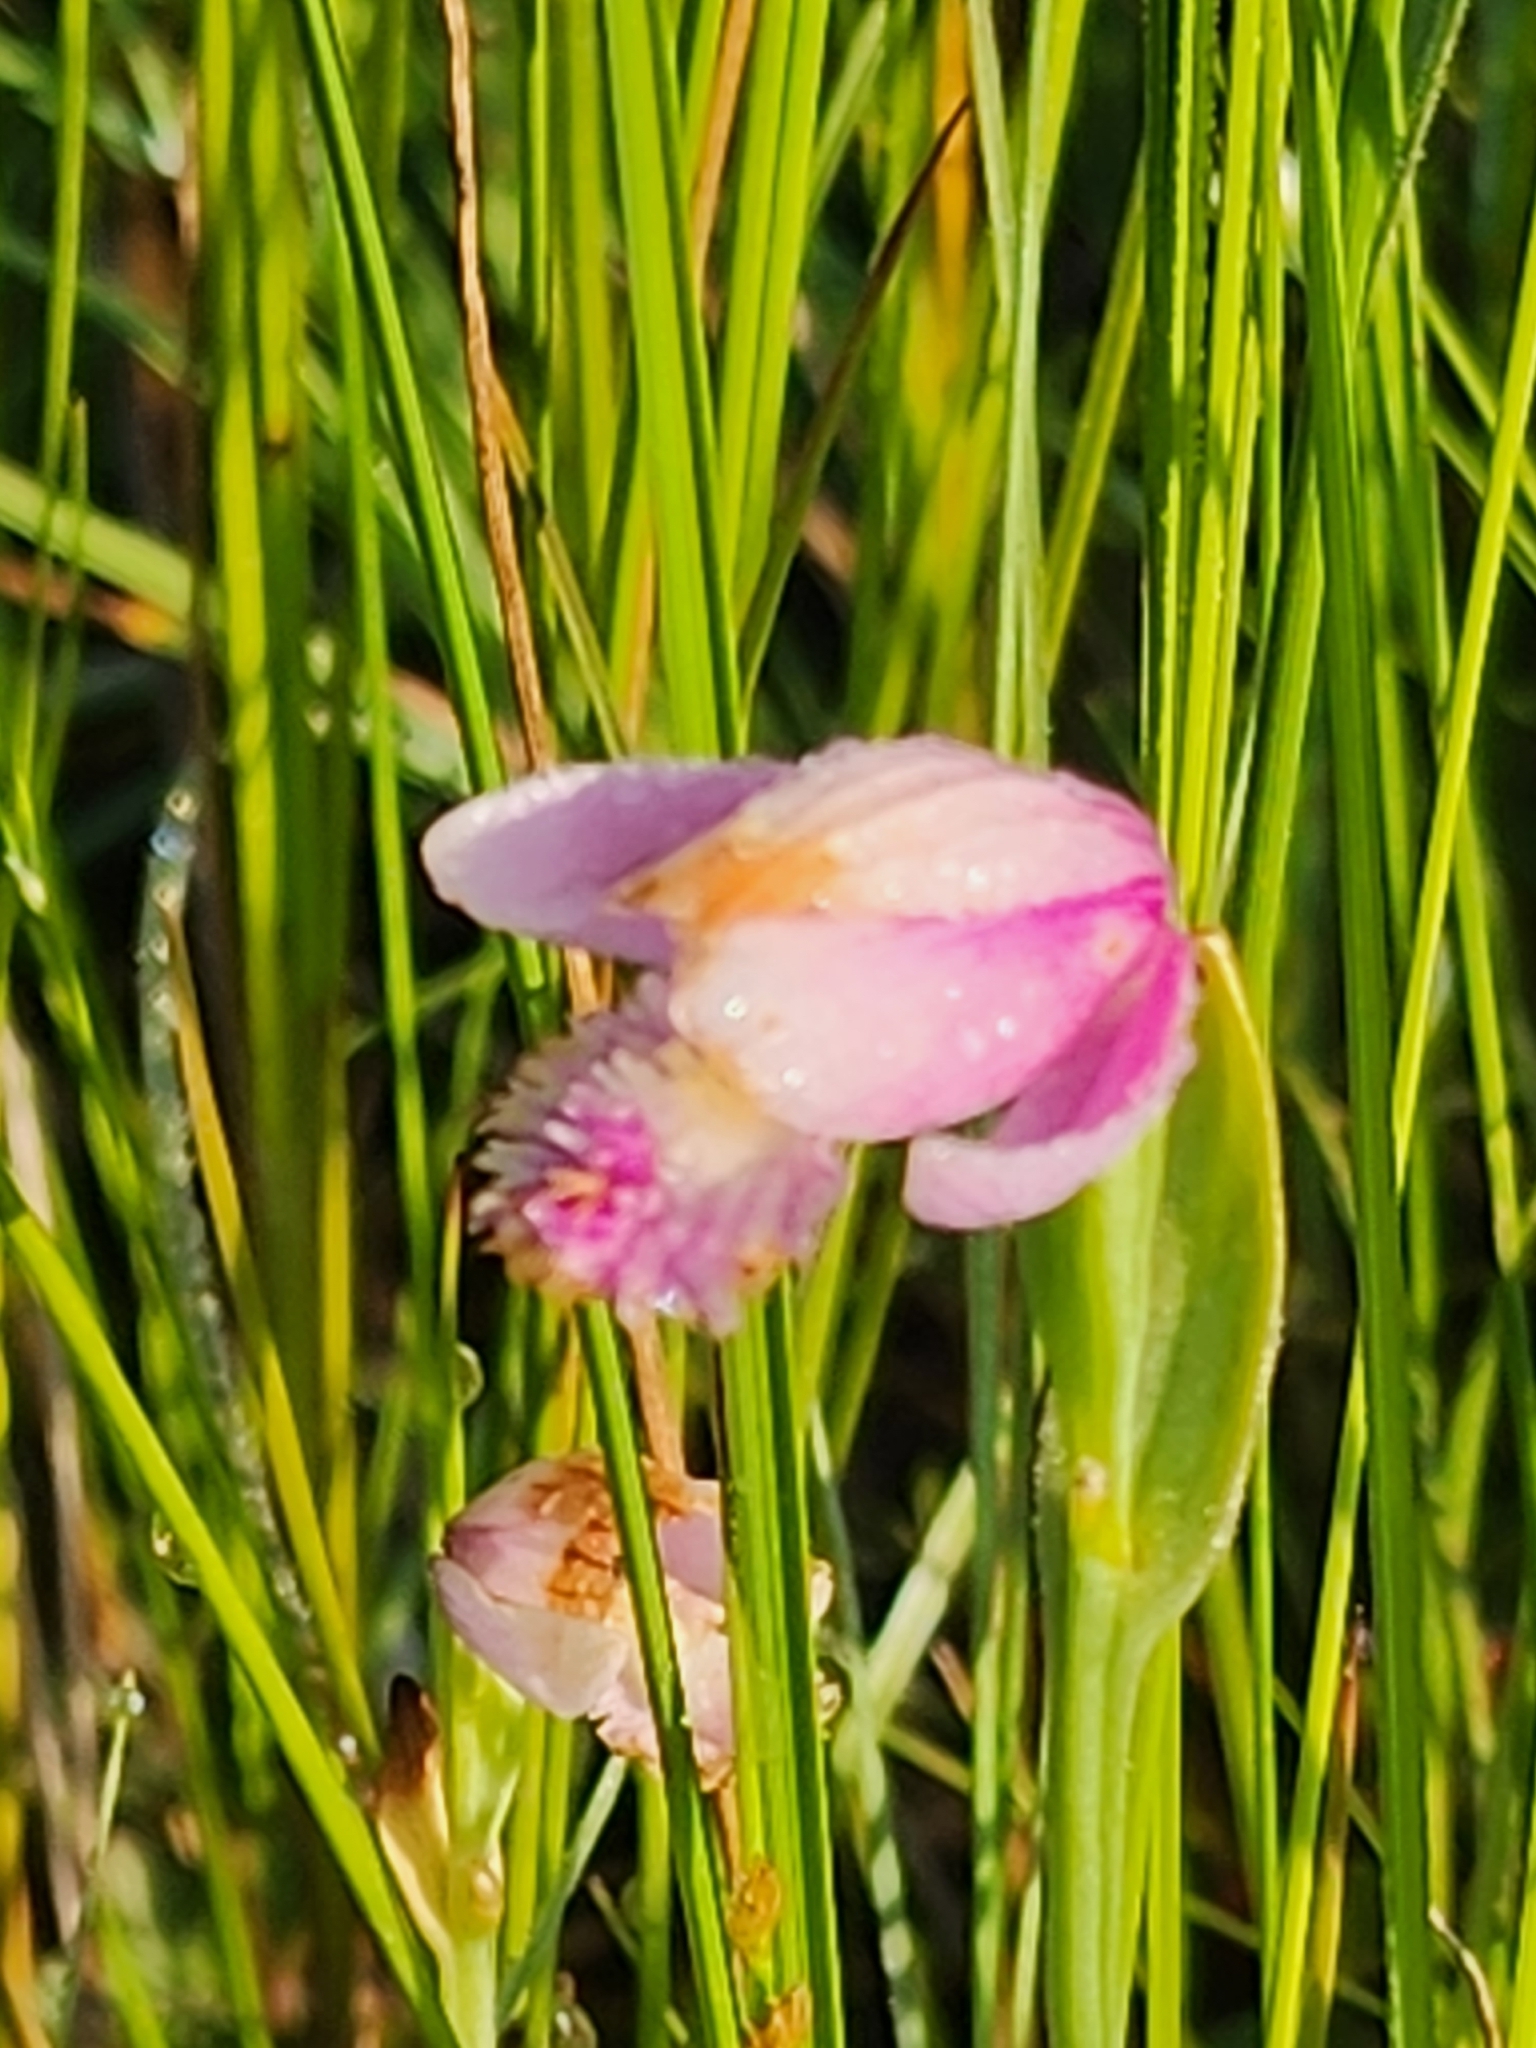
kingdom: Plantae
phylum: Tracheophyta
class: Liliopsida
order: Asparagales
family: Orchidaceae
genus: Pogonia
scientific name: Pogonia ophioglossoides
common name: Rose pogonia
